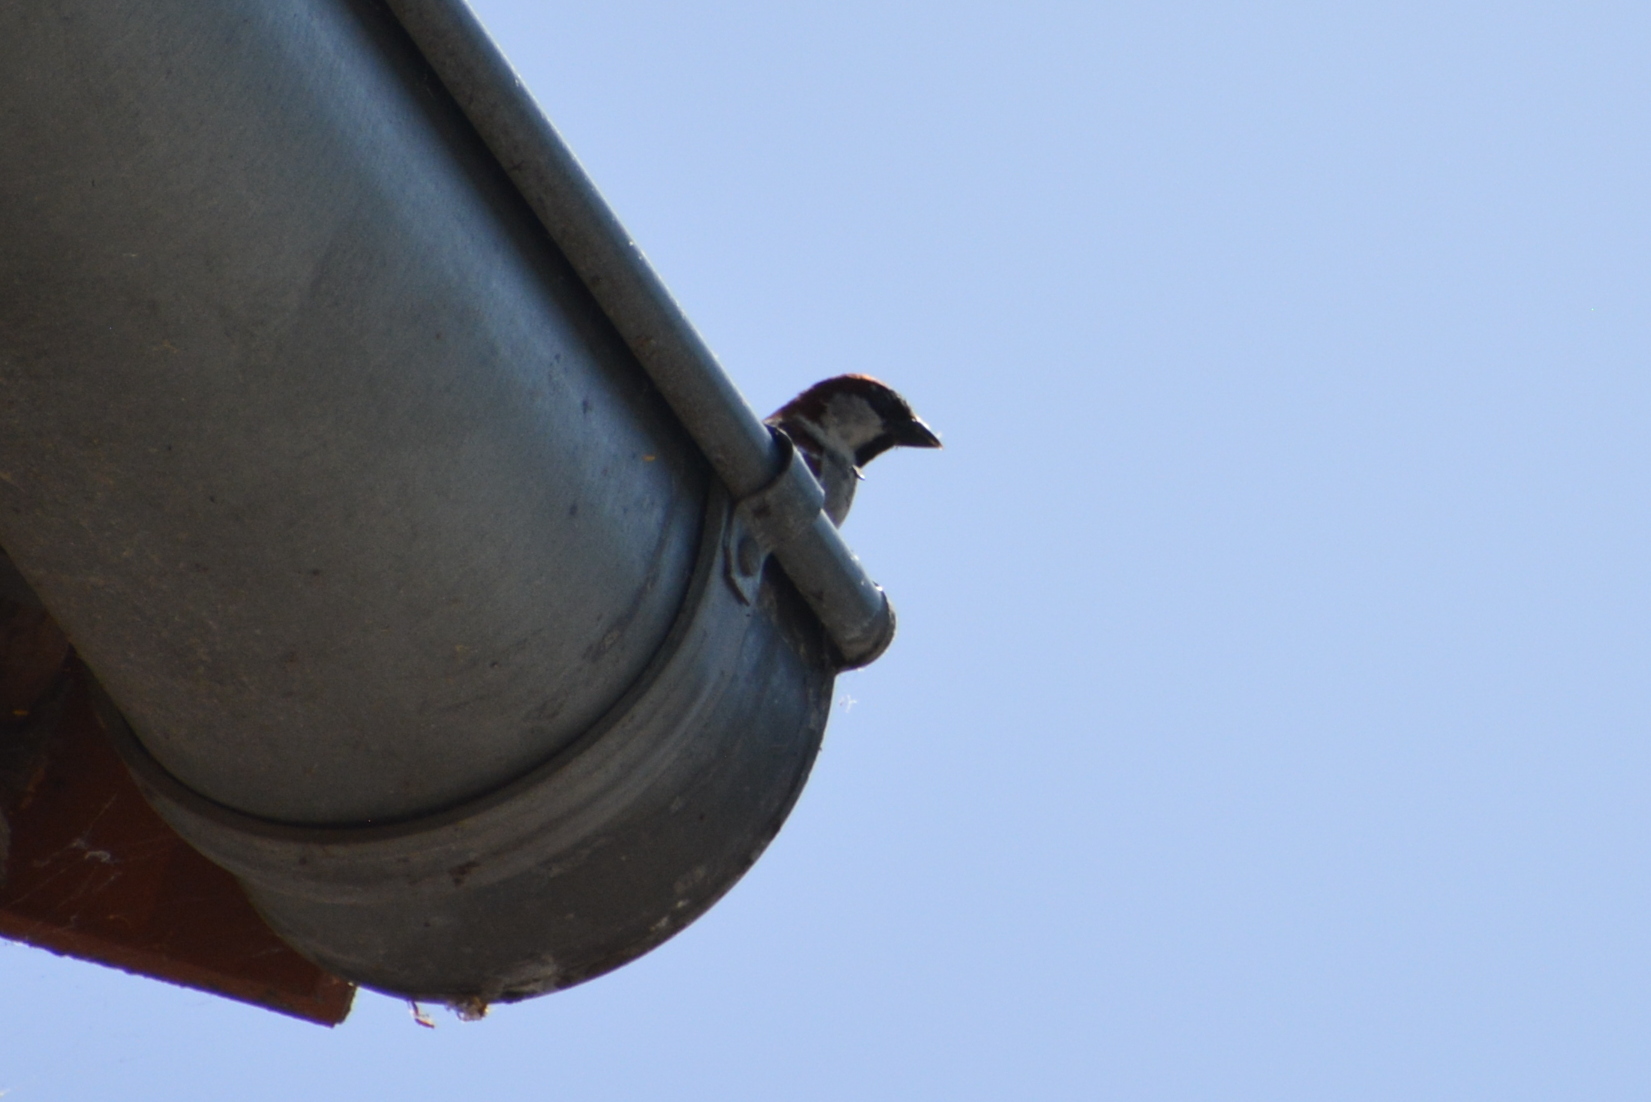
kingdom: Animalia
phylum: Chordata
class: Aves
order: Passeriformes
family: Passeridae
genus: Passer
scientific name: Passer domesticus
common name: House sparrow
